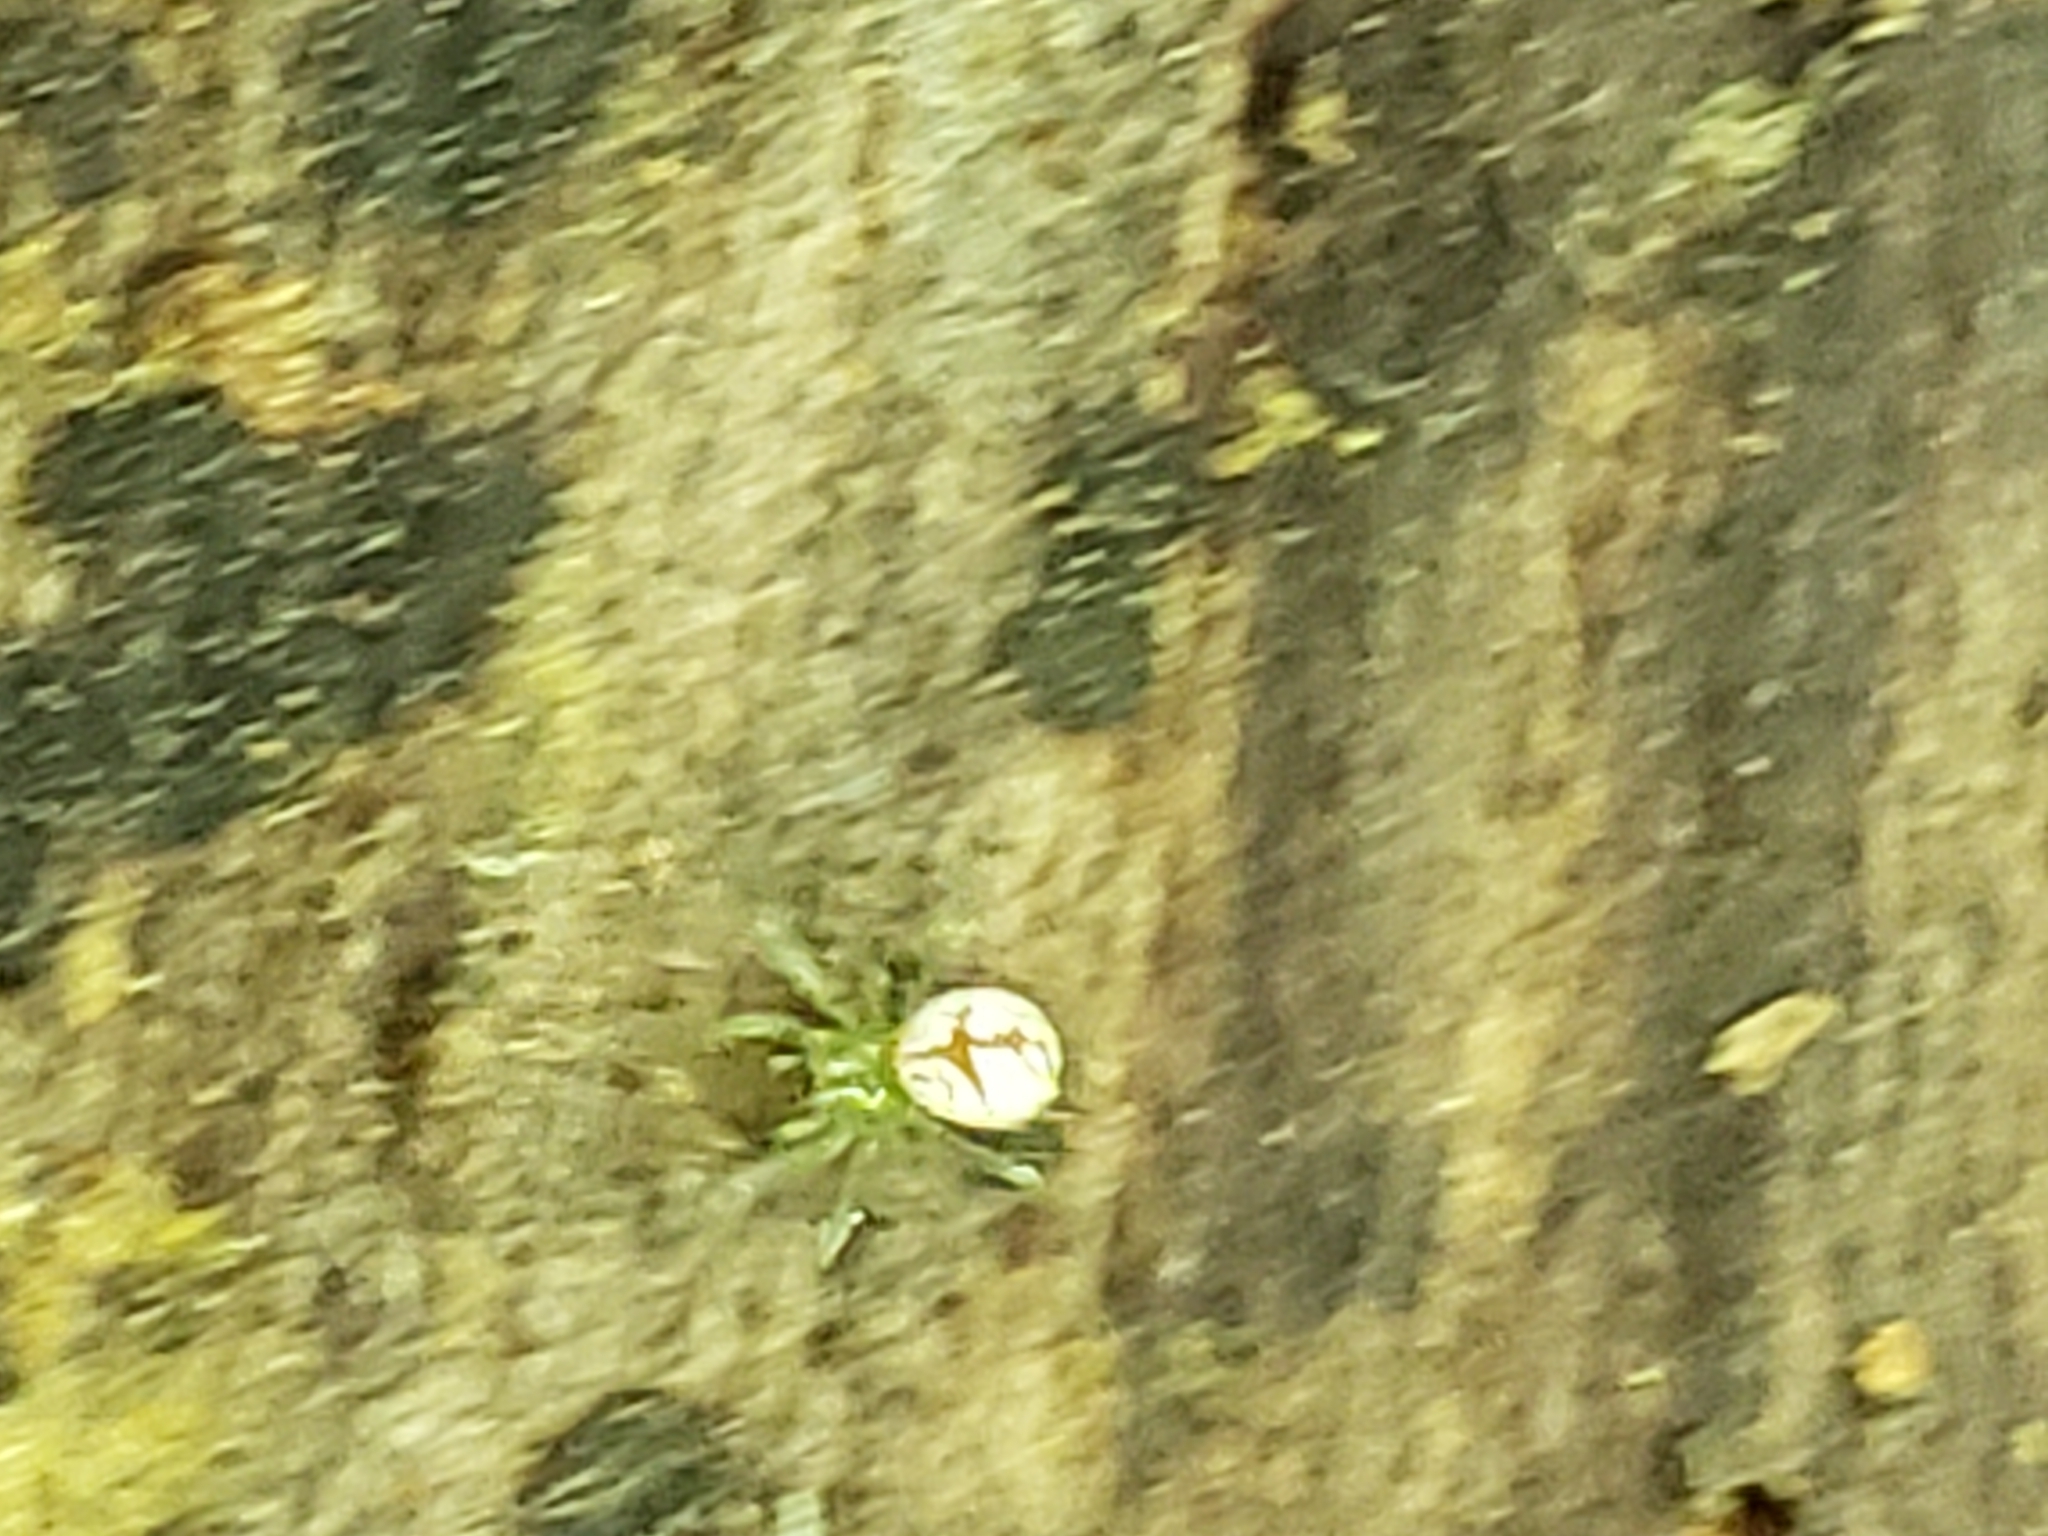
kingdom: Animalia
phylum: Arthropoda
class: Arachnida
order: Araneae
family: Tetragnathidae
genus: Leucauge
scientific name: Leucauge venusta
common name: Longjawed orb weavers
